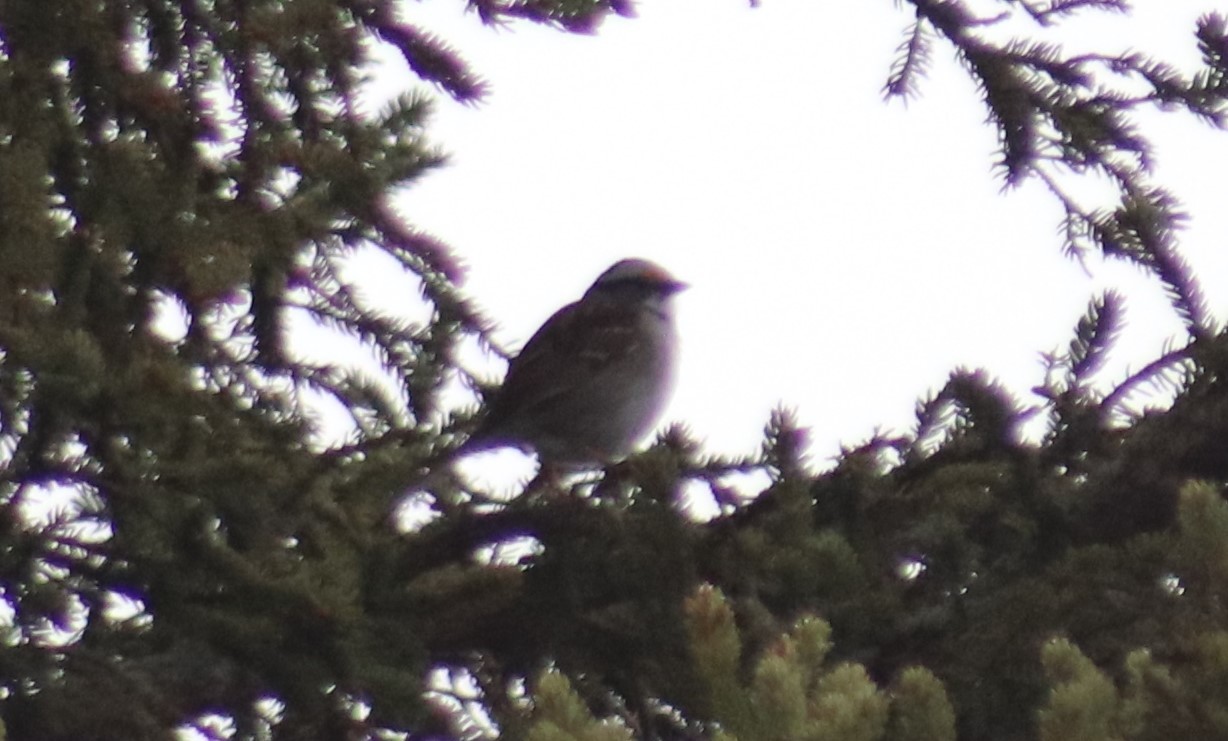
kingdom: Animalia
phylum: Chordata
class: Aves
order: Passeriformes
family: Passerellidae
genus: Zonotrichia
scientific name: Zonotrichia albicollis
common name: White-throated sparrow
